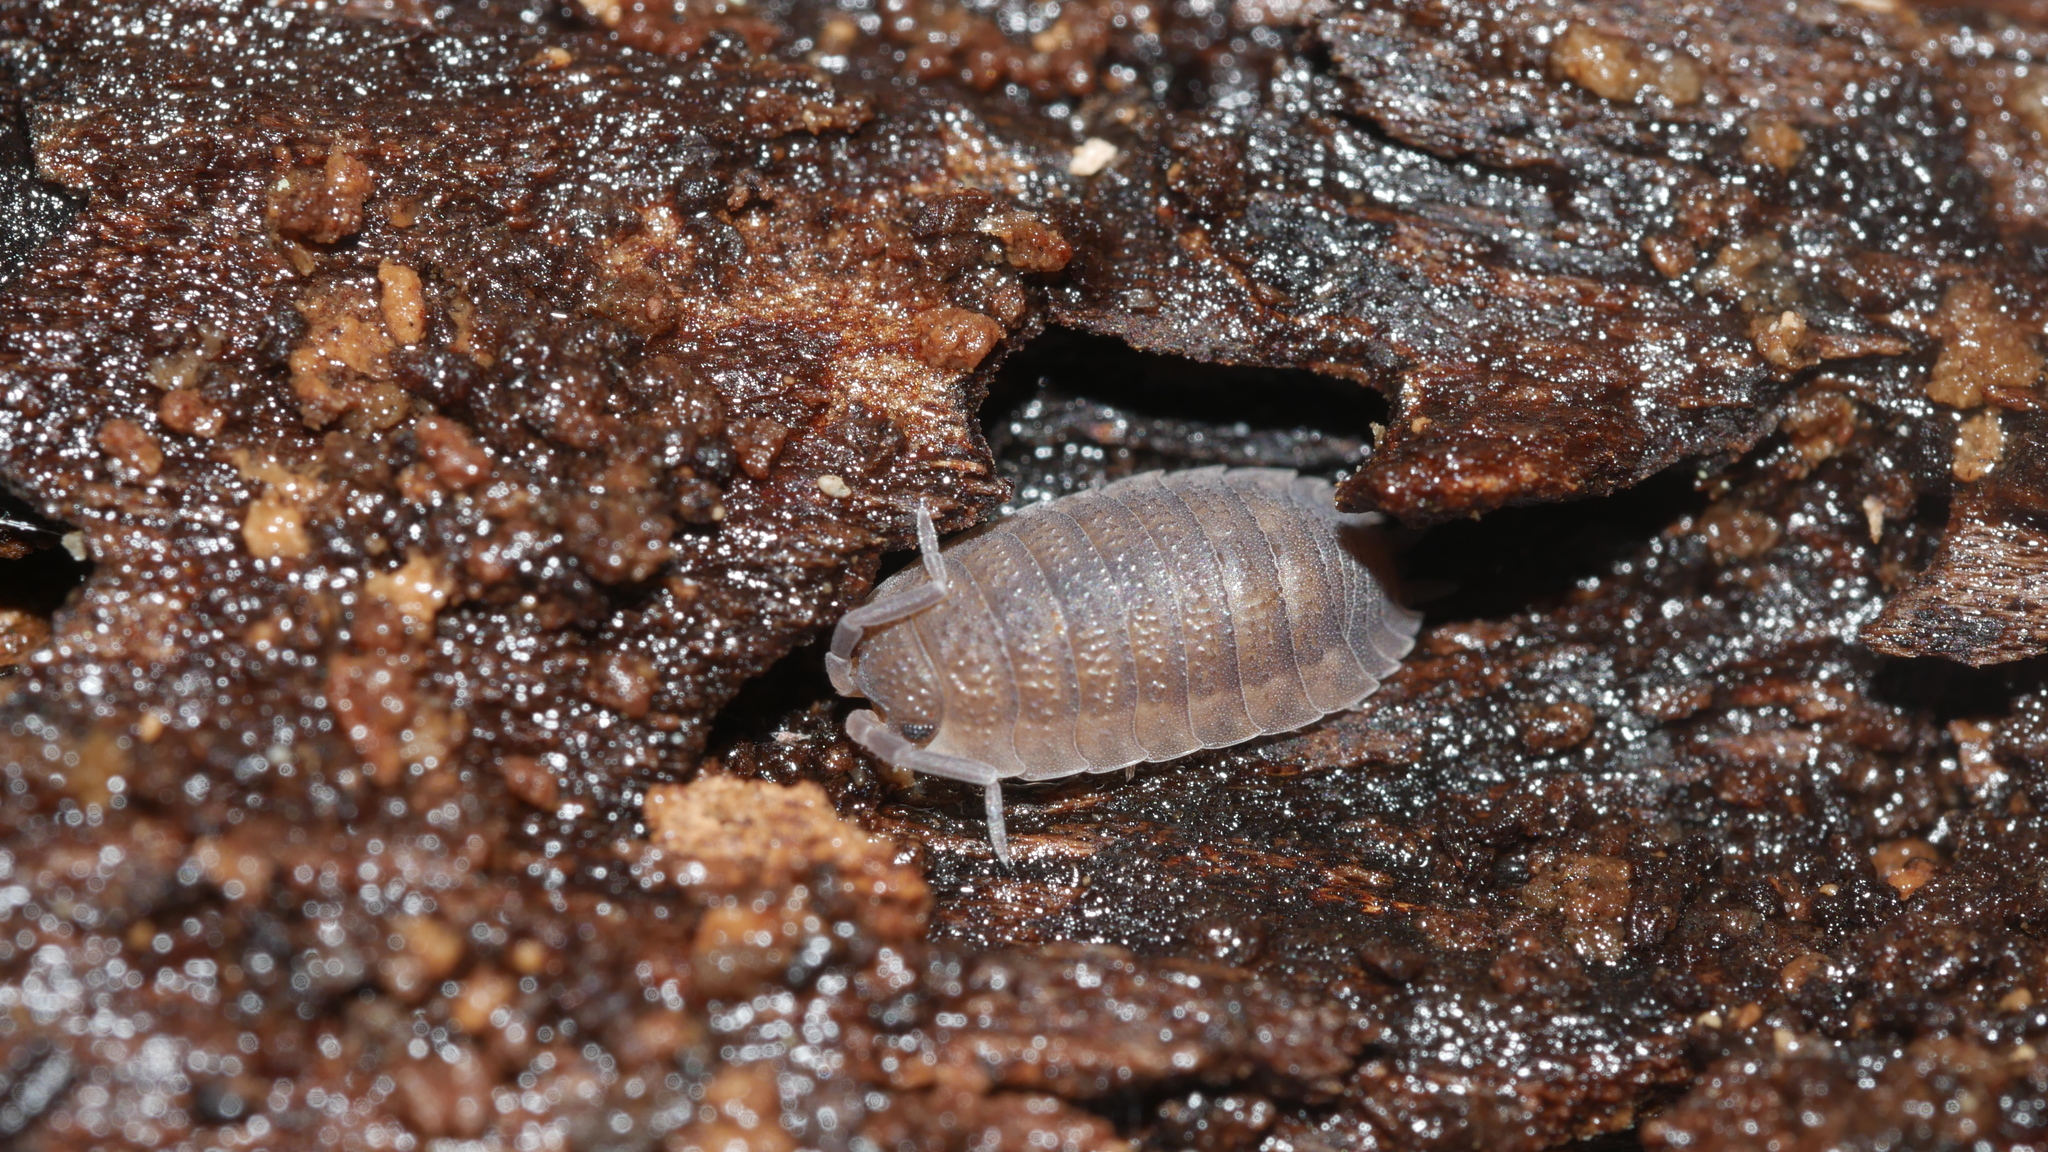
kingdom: Animalia
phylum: Arthropoda
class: Malacostraca
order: Isopoda
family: Porcellionidae
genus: Porcellio
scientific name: Porcellio scaber
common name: Common rough woodlouse
